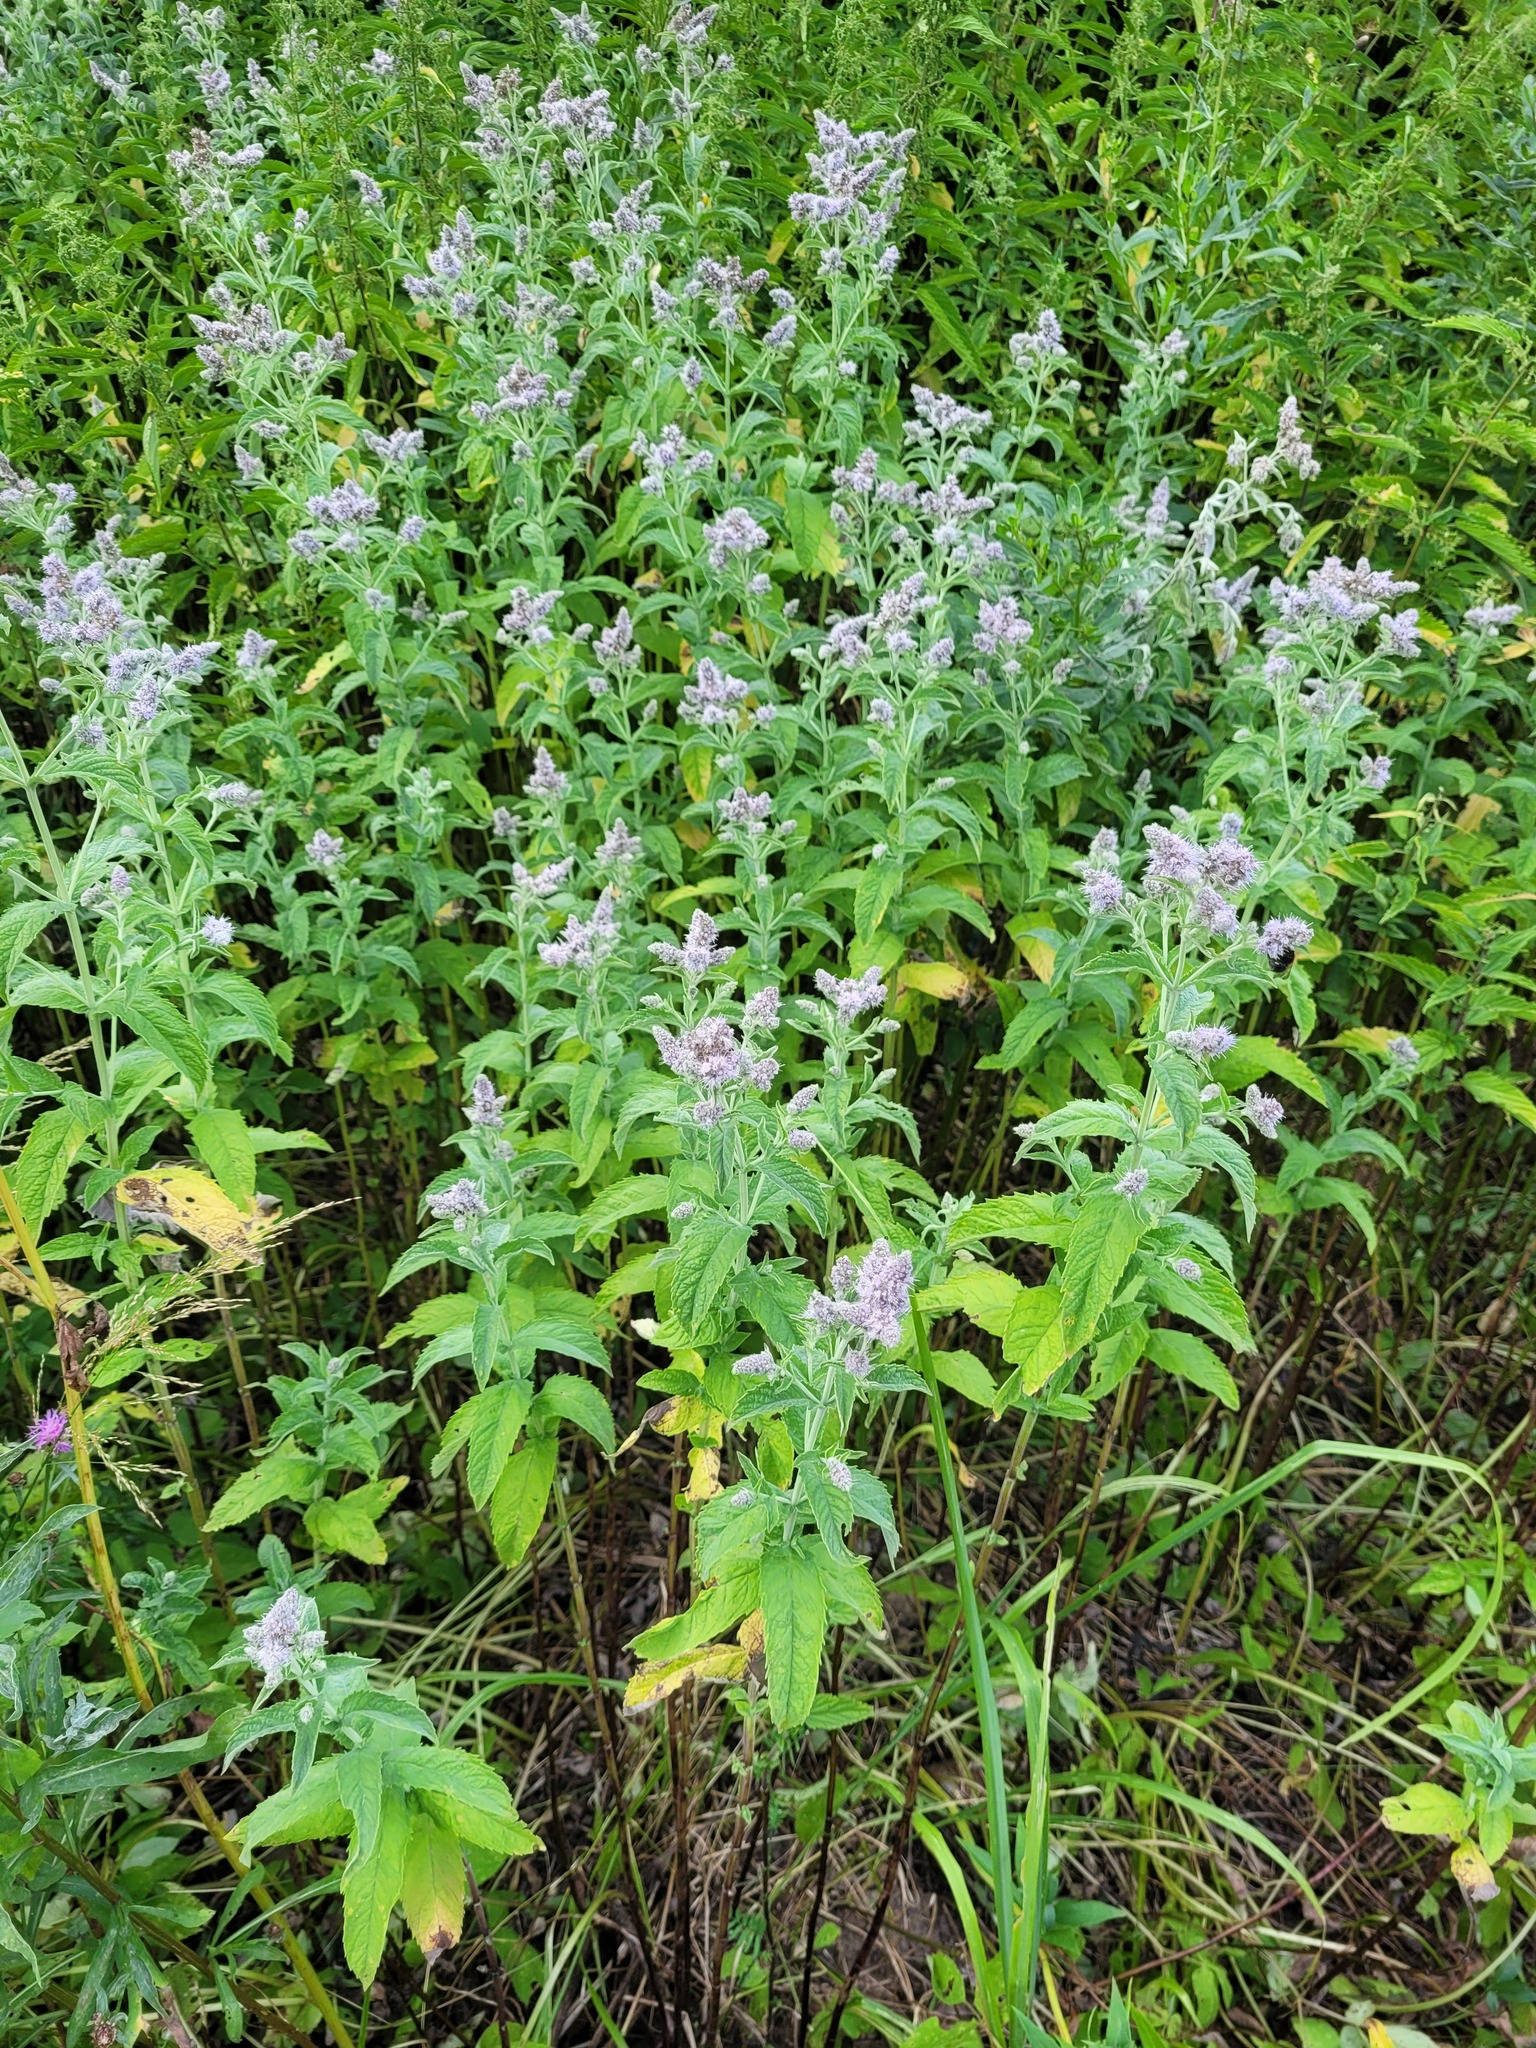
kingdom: Plantae
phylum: Tracheophyta
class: Magnoliopsida
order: Lamiales
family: Lamiaceae
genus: Mentha
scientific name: Mentha longifolia
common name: Horse mint
